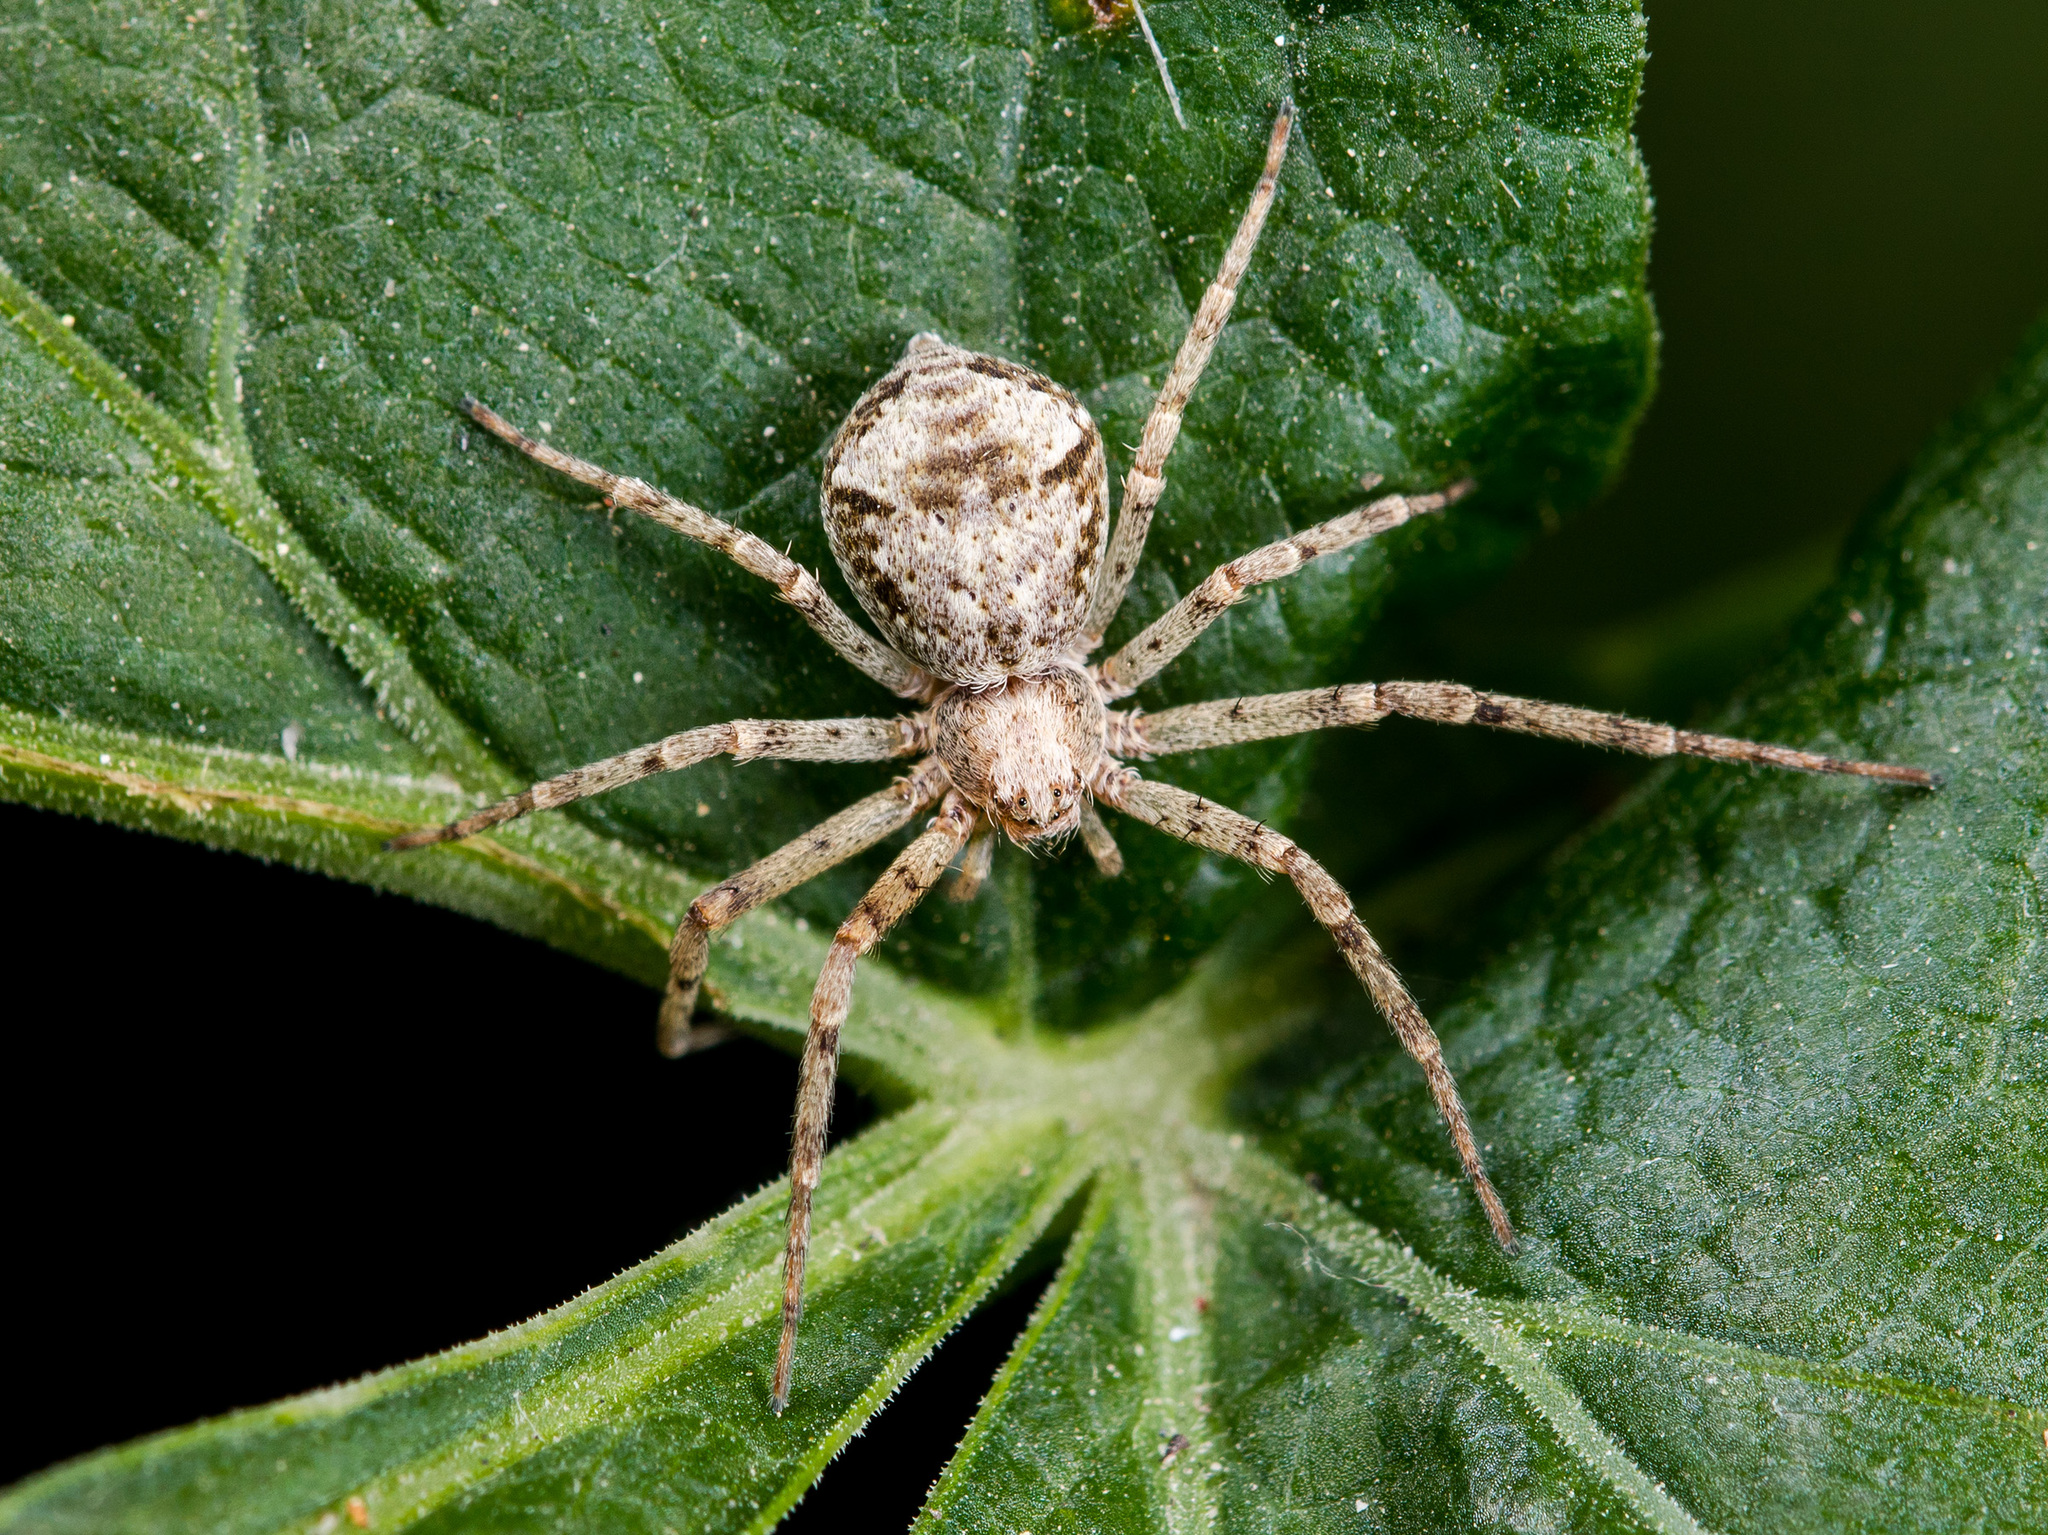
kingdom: Animalia
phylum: Arthropoda
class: Arachnida
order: Araneae
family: Philodromidae
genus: Rhysodromus
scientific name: Rhysodromus pictus
